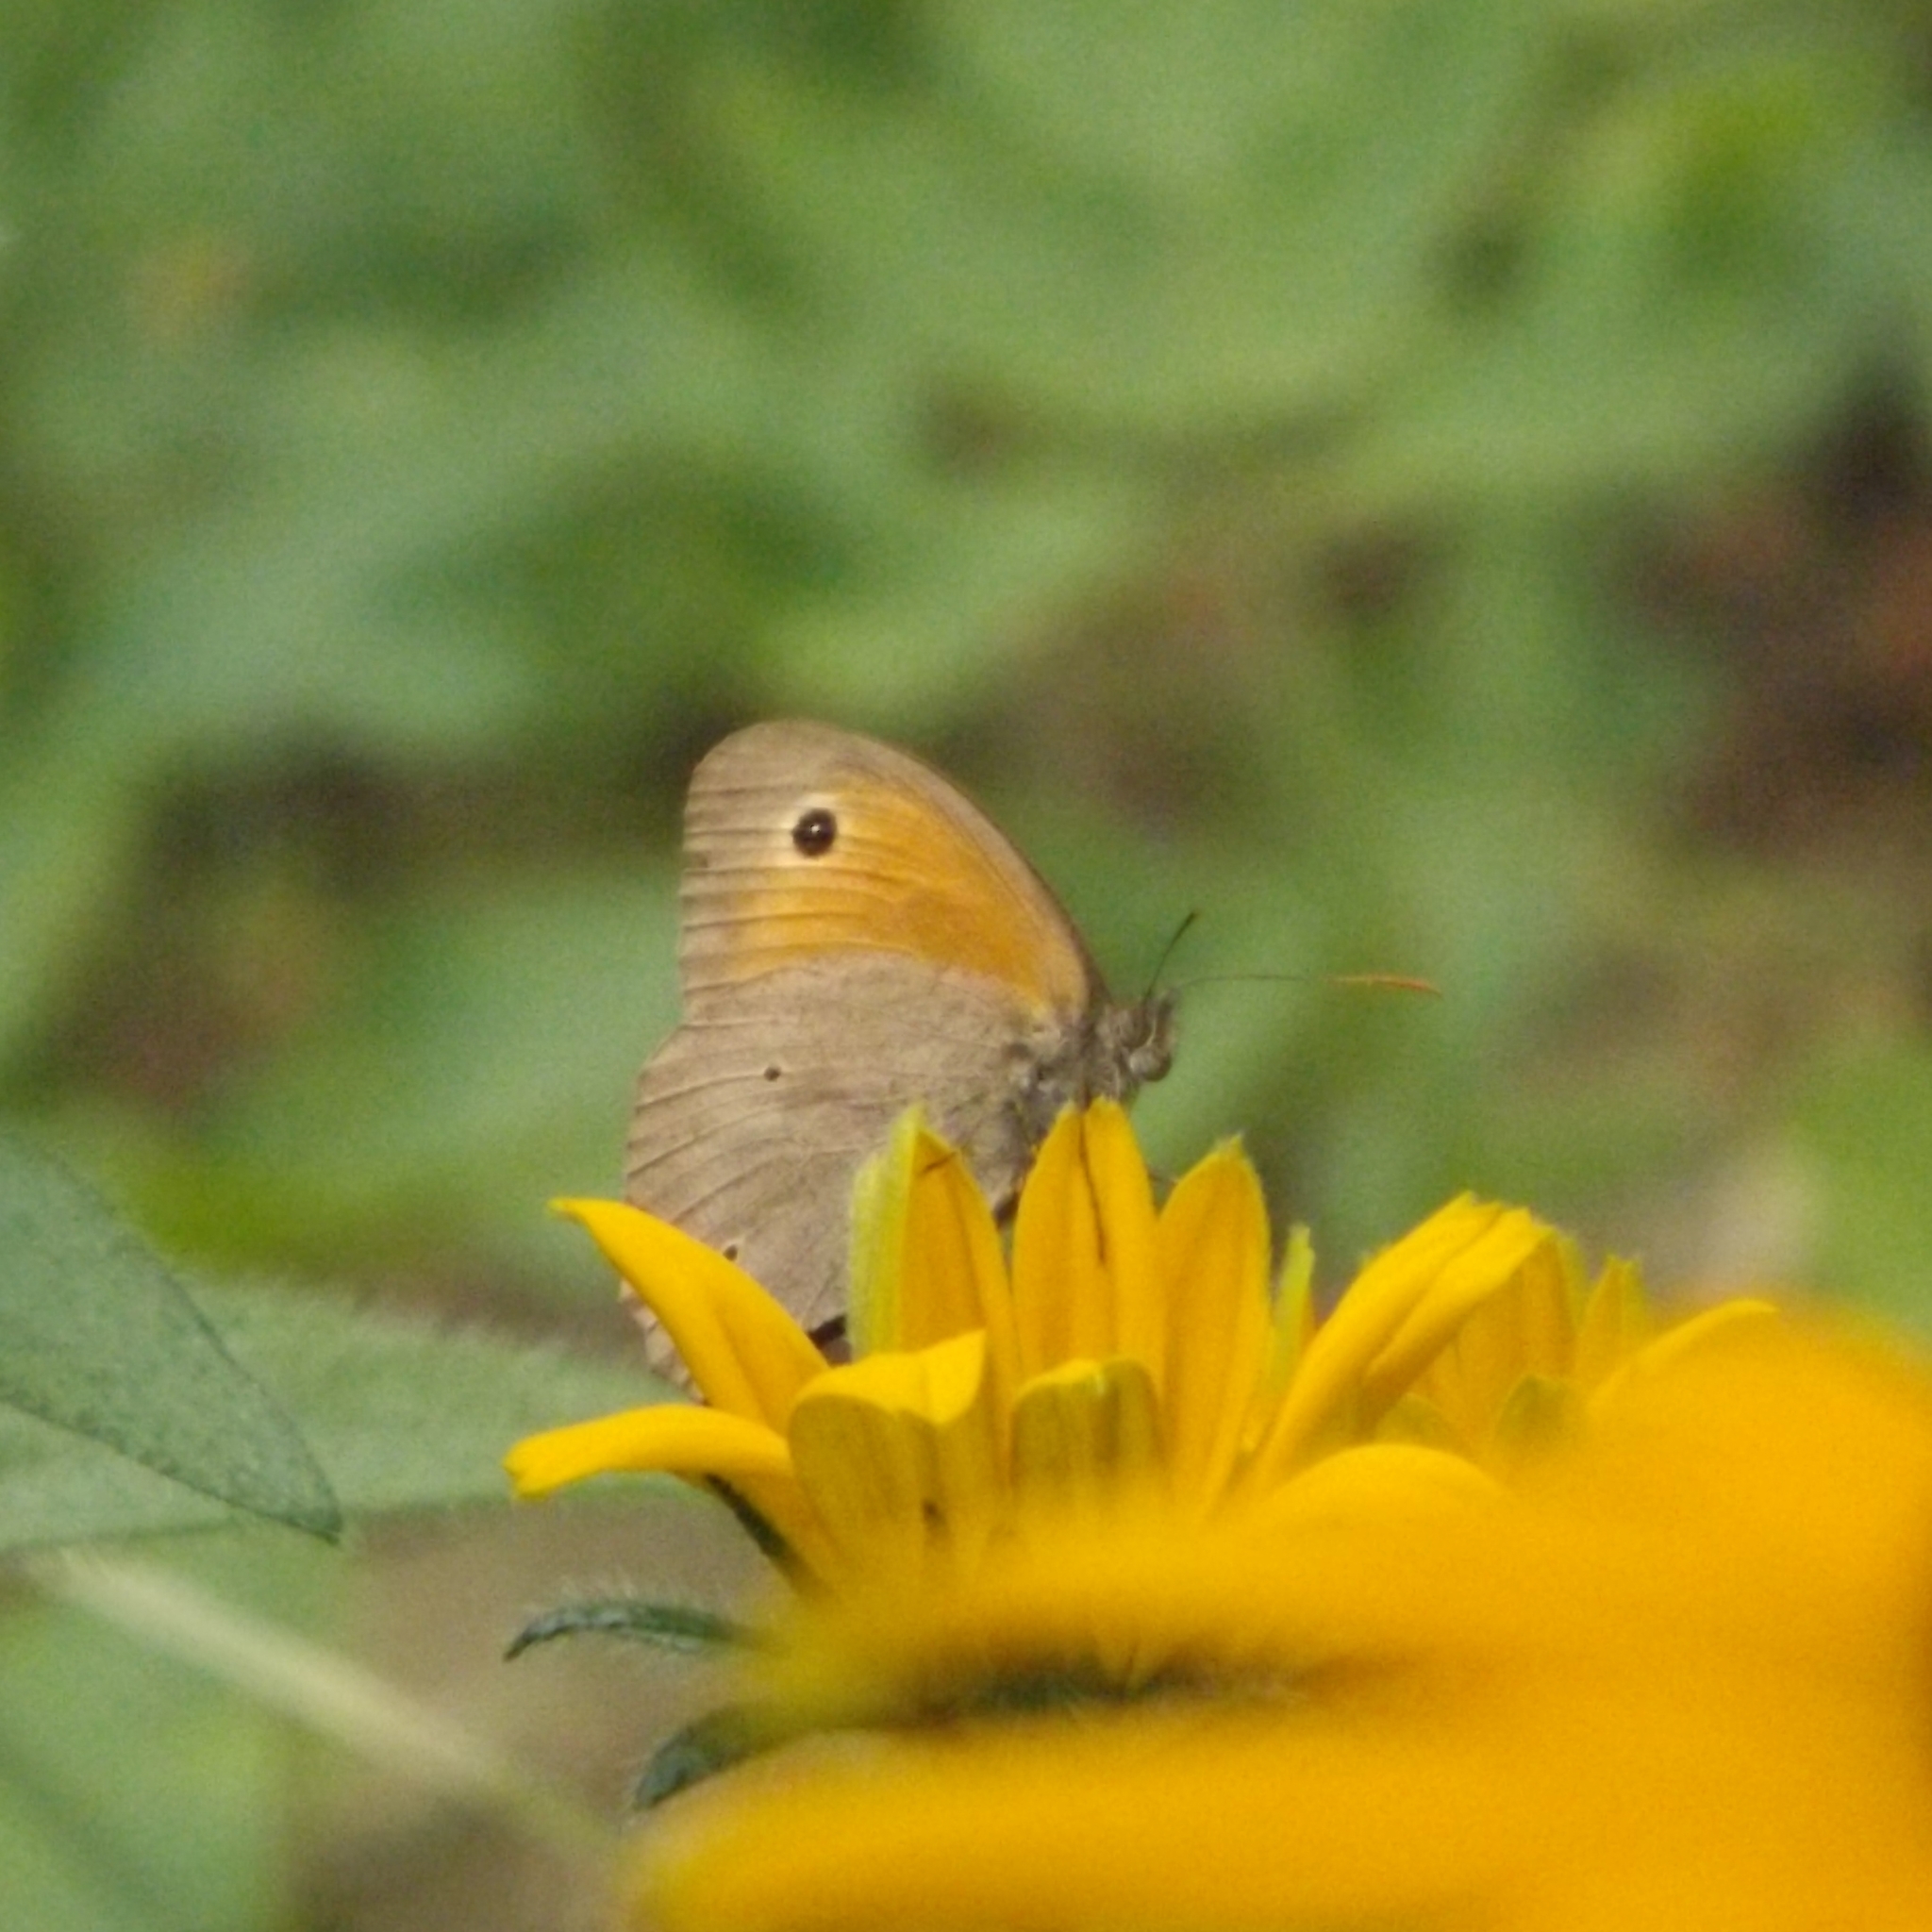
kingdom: Animalia
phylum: Arthropoda
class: Insecta
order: Lepidoptera
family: Nymphalidae
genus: Maniola
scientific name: Maniola jurtina
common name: Meadow brown
